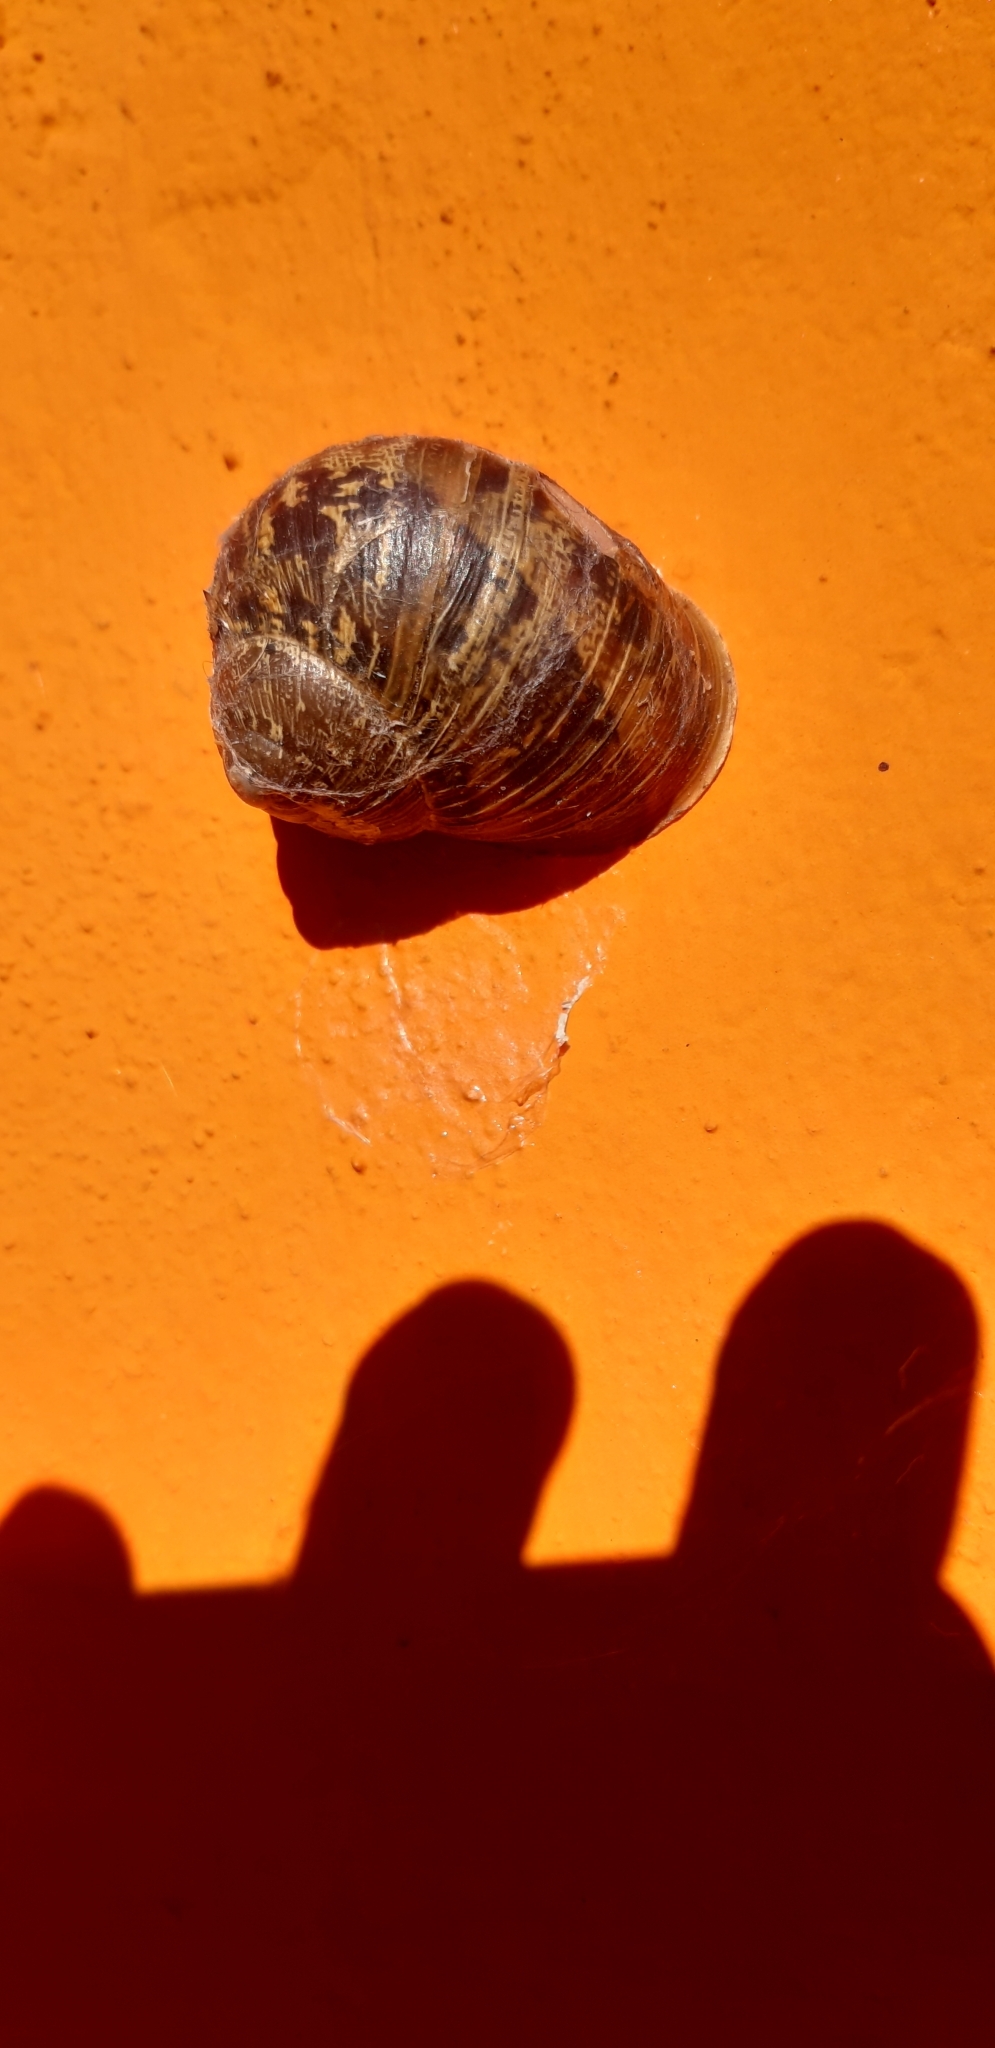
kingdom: Animalia
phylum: Mollusca
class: Gastropoda
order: Stylommatophora
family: Helicidae
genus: Cornu
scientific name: Cornu aspersum
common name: Brown garden snail
